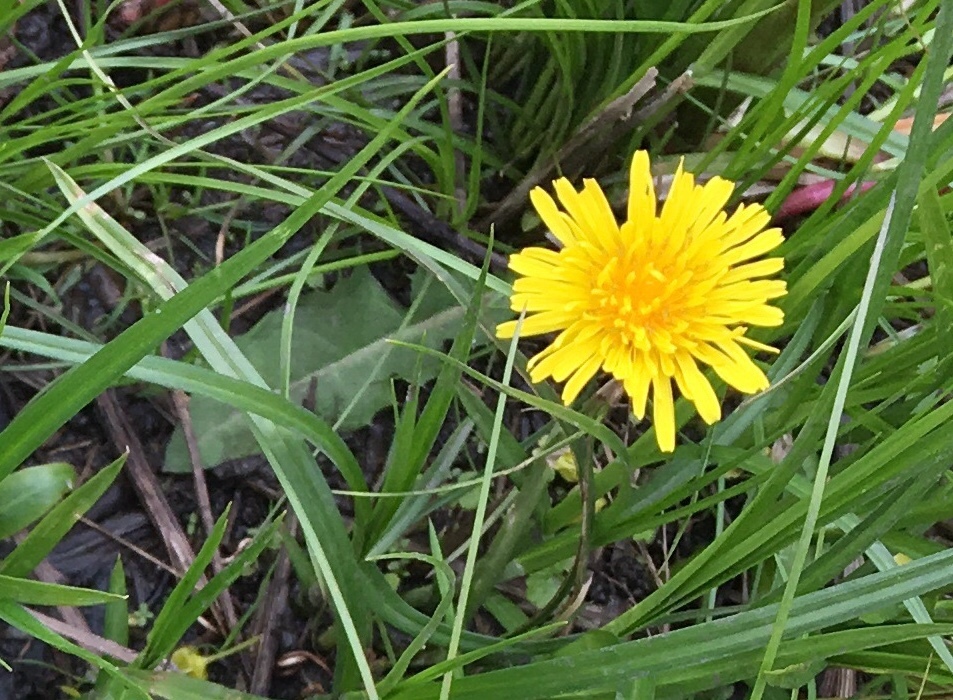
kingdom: Plantae
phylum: Tracheophyta
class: Magnoliopsida
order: Asterales
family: Asteraceae
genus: Taraxacum
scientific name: Taraxacum officinale
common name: Common dandelion
